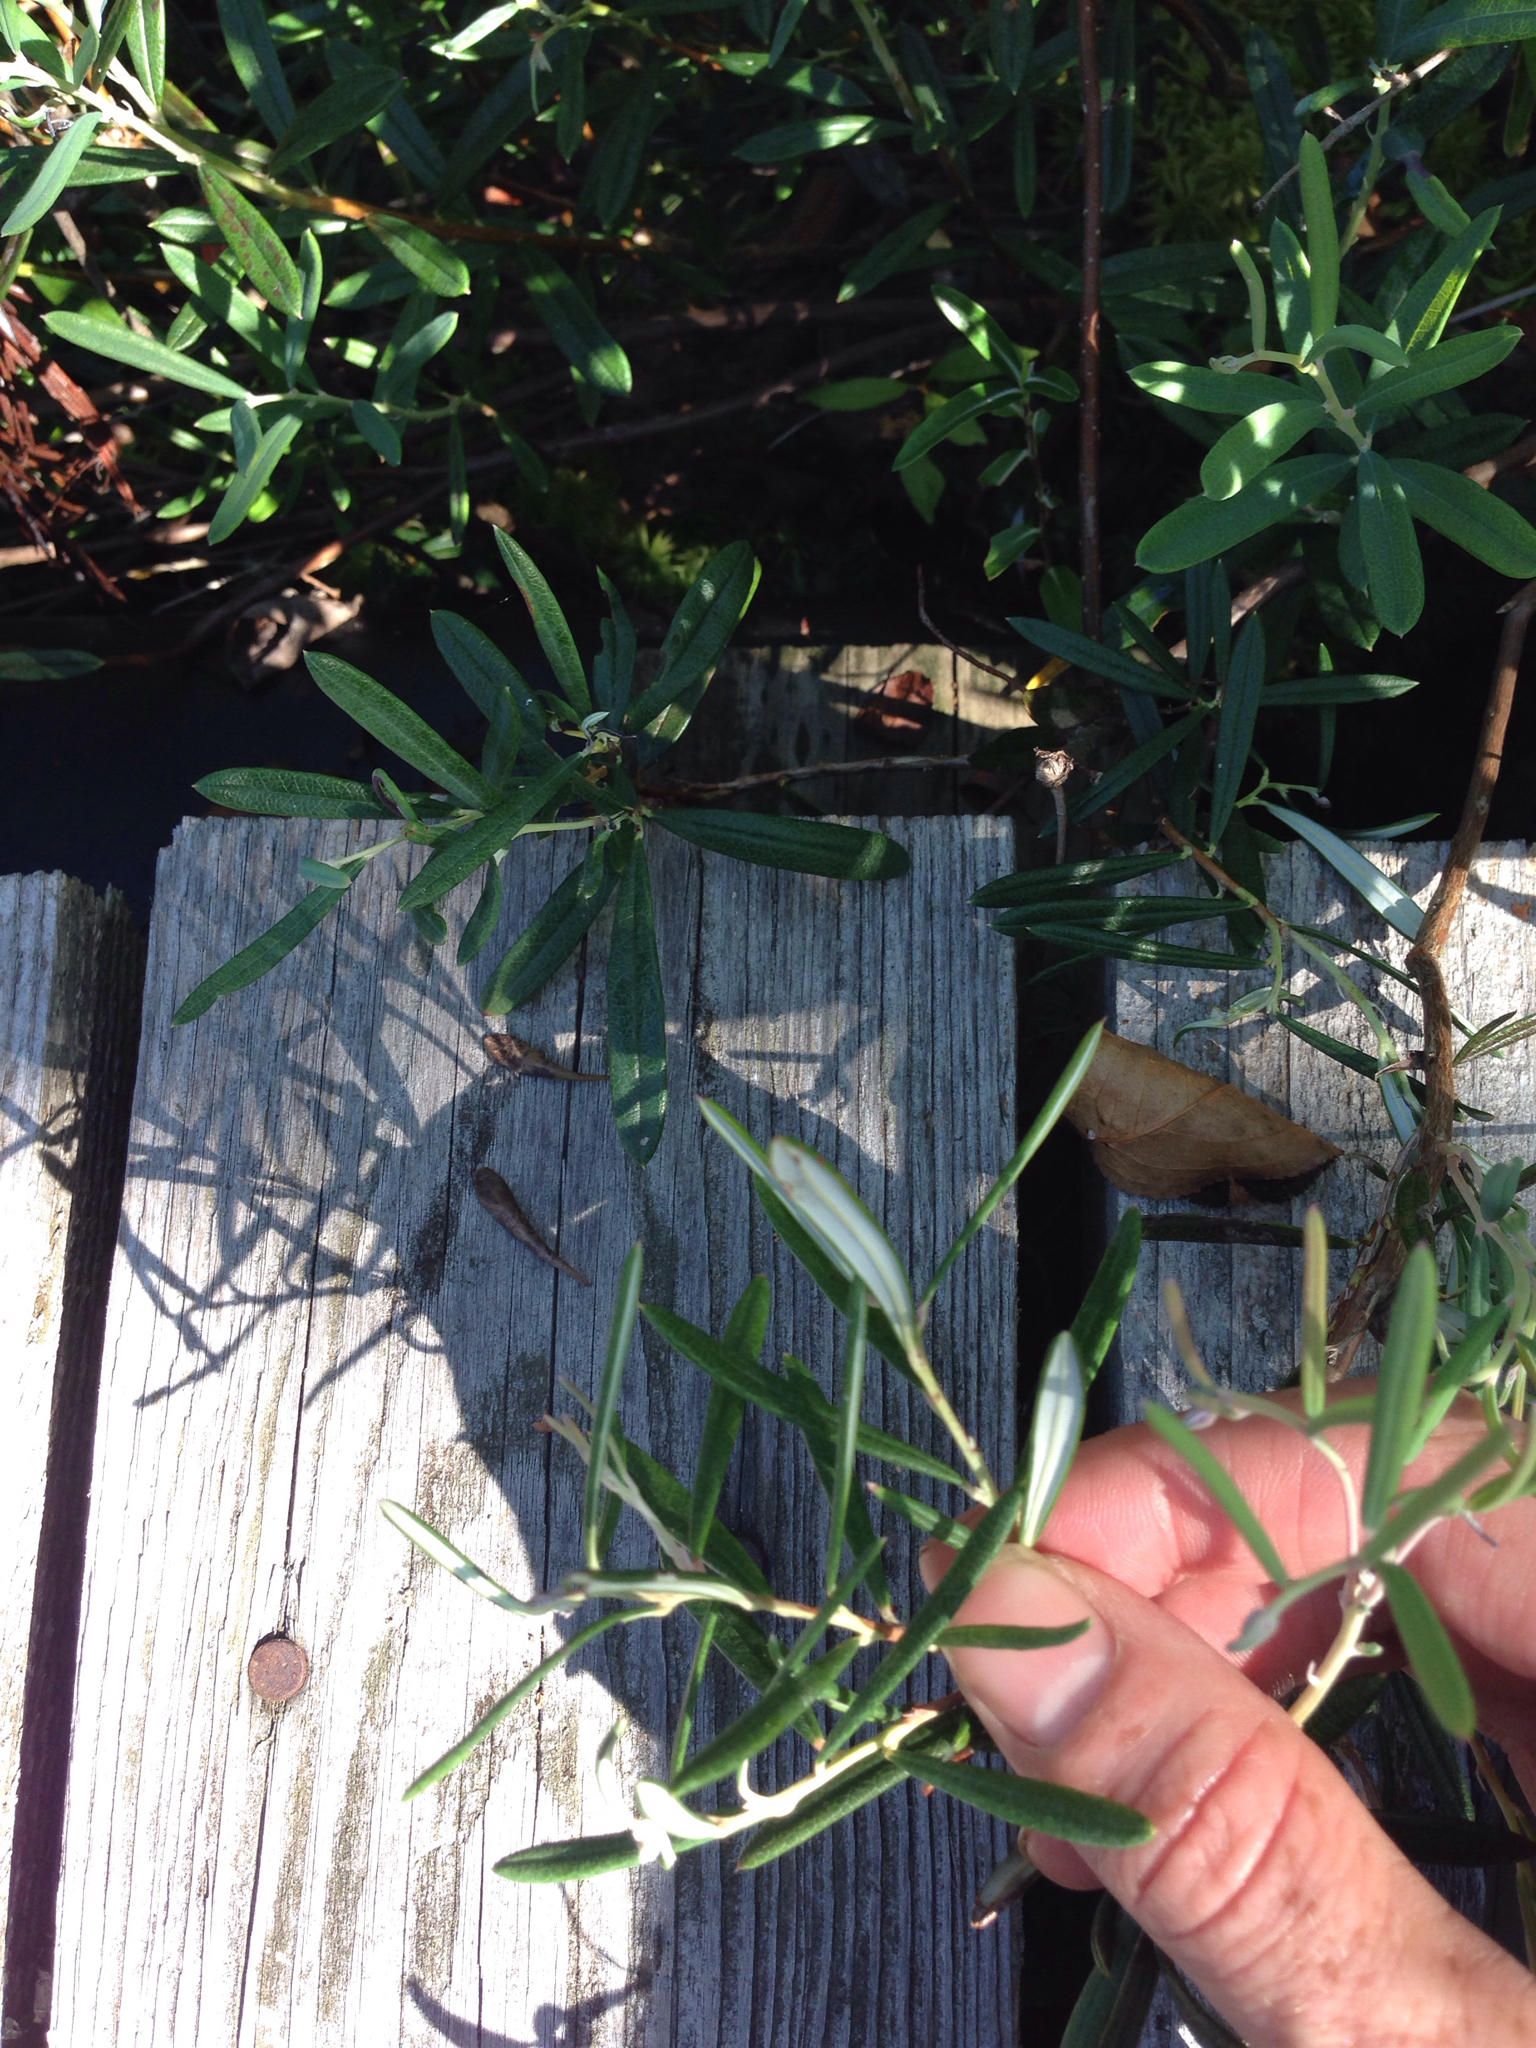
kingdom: Plantae
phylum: Tracheophyta
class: Magnoliopsida
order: Ericales
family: Ericaceae
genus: Andromeda
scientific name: Andromeda polifolia
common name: Bog-rosemary
